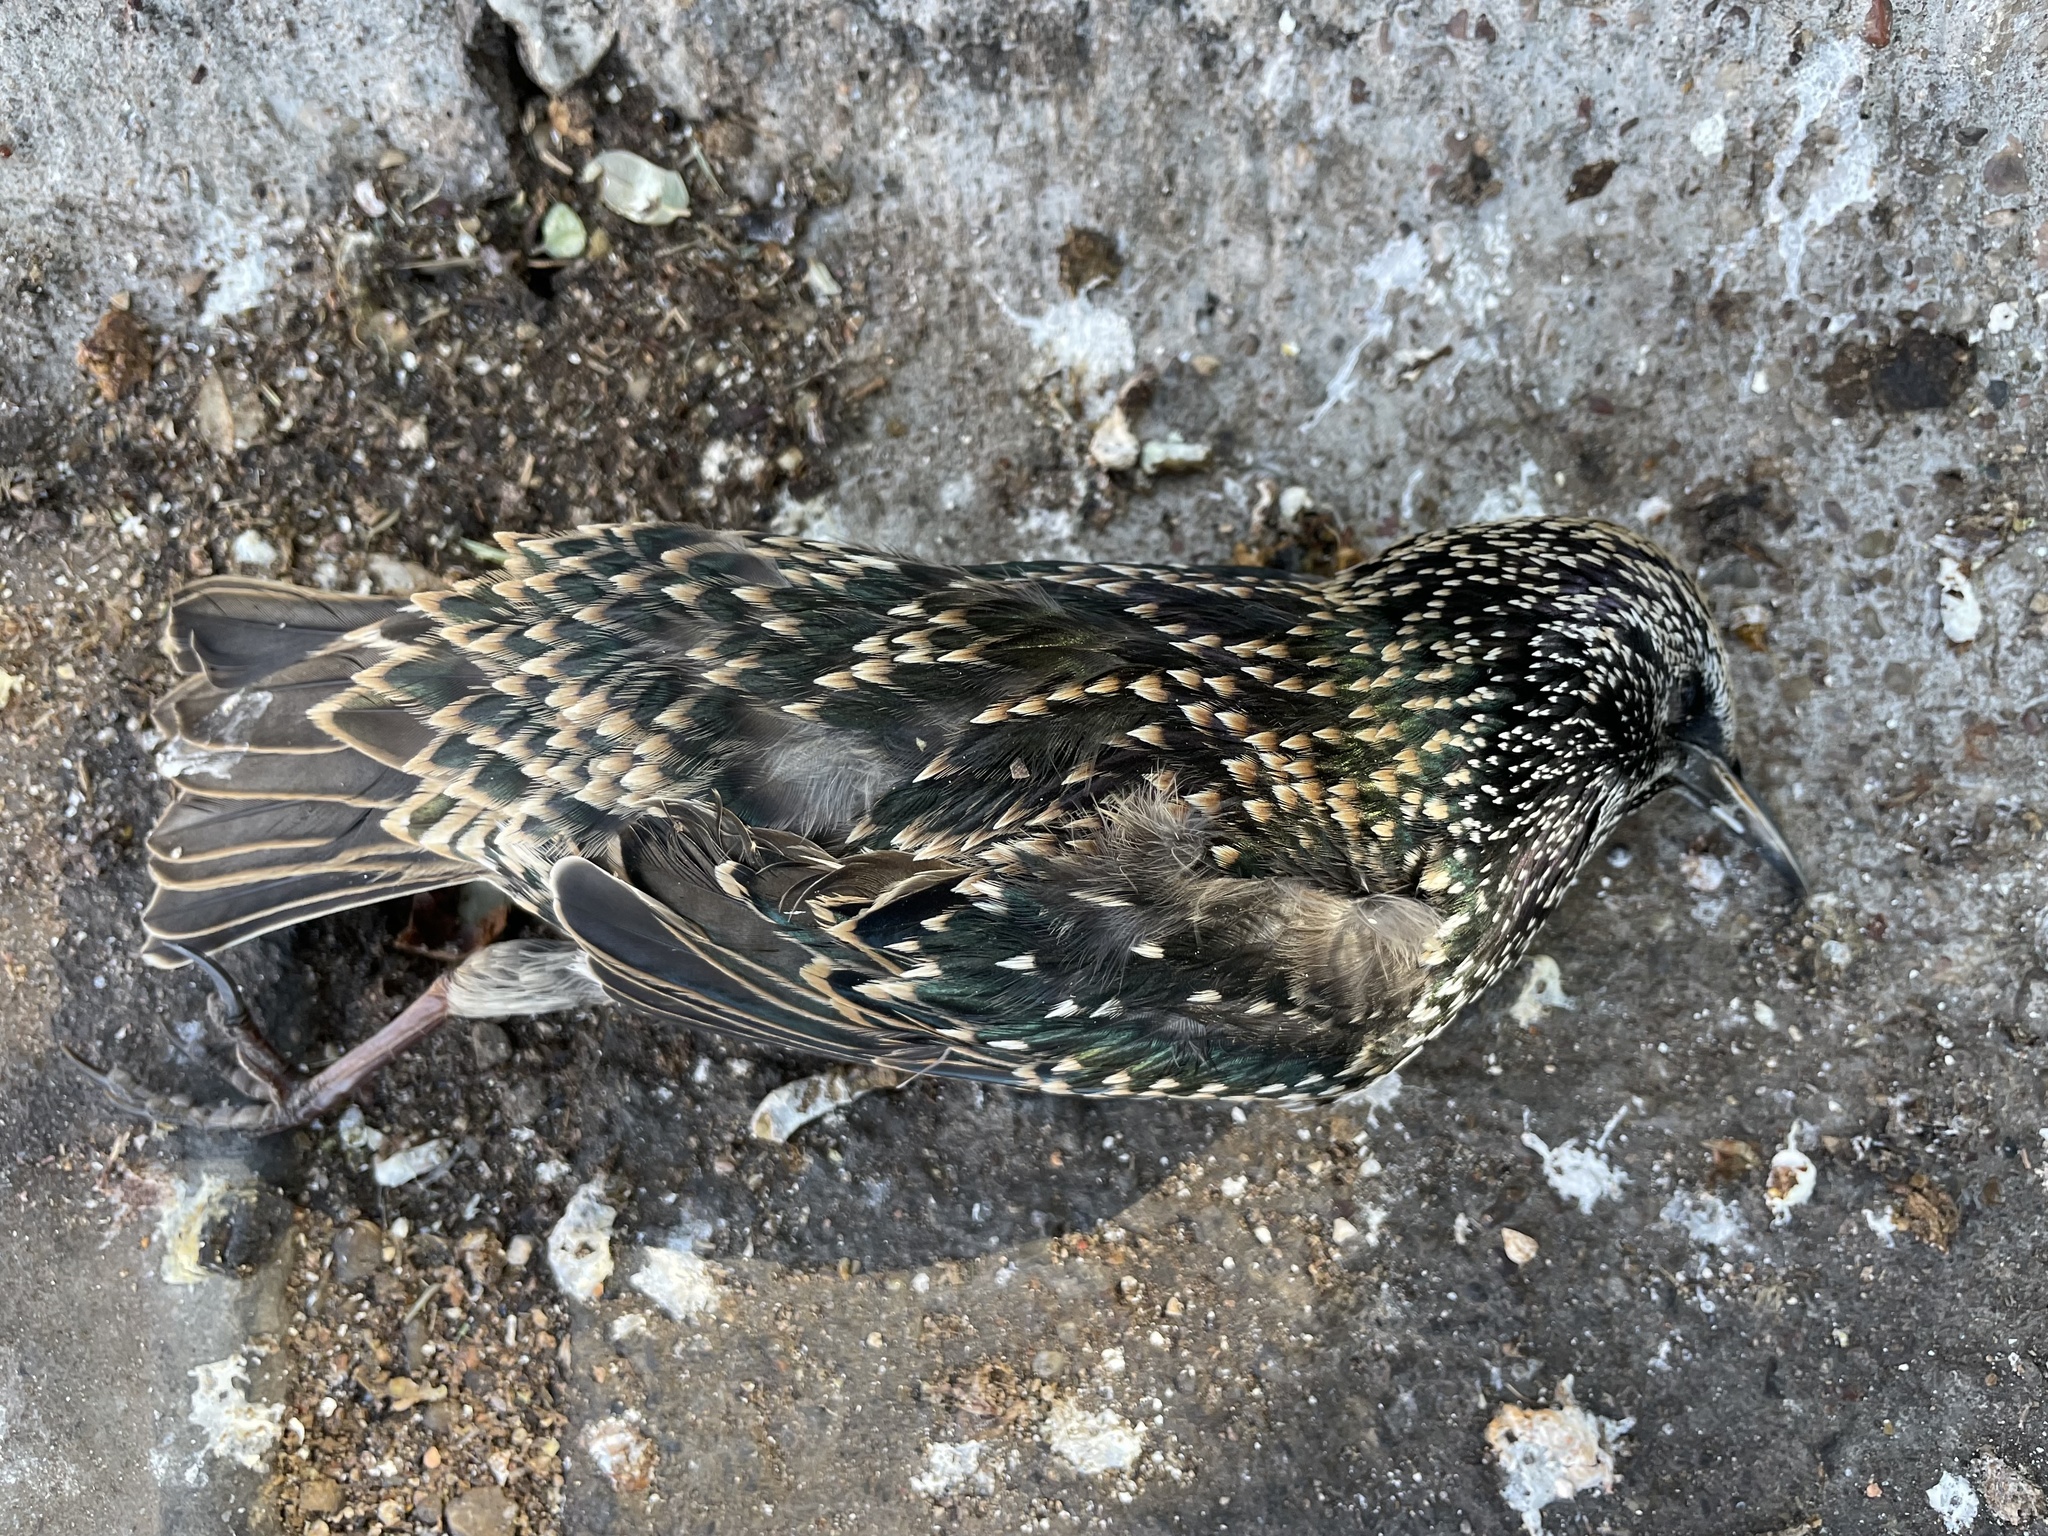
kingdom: Animalia
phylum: Chordata
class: Aves
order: Passeriformes
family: Sturnidae
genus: Sturnus
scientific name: Sturnus vulgaris
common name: Common starling
